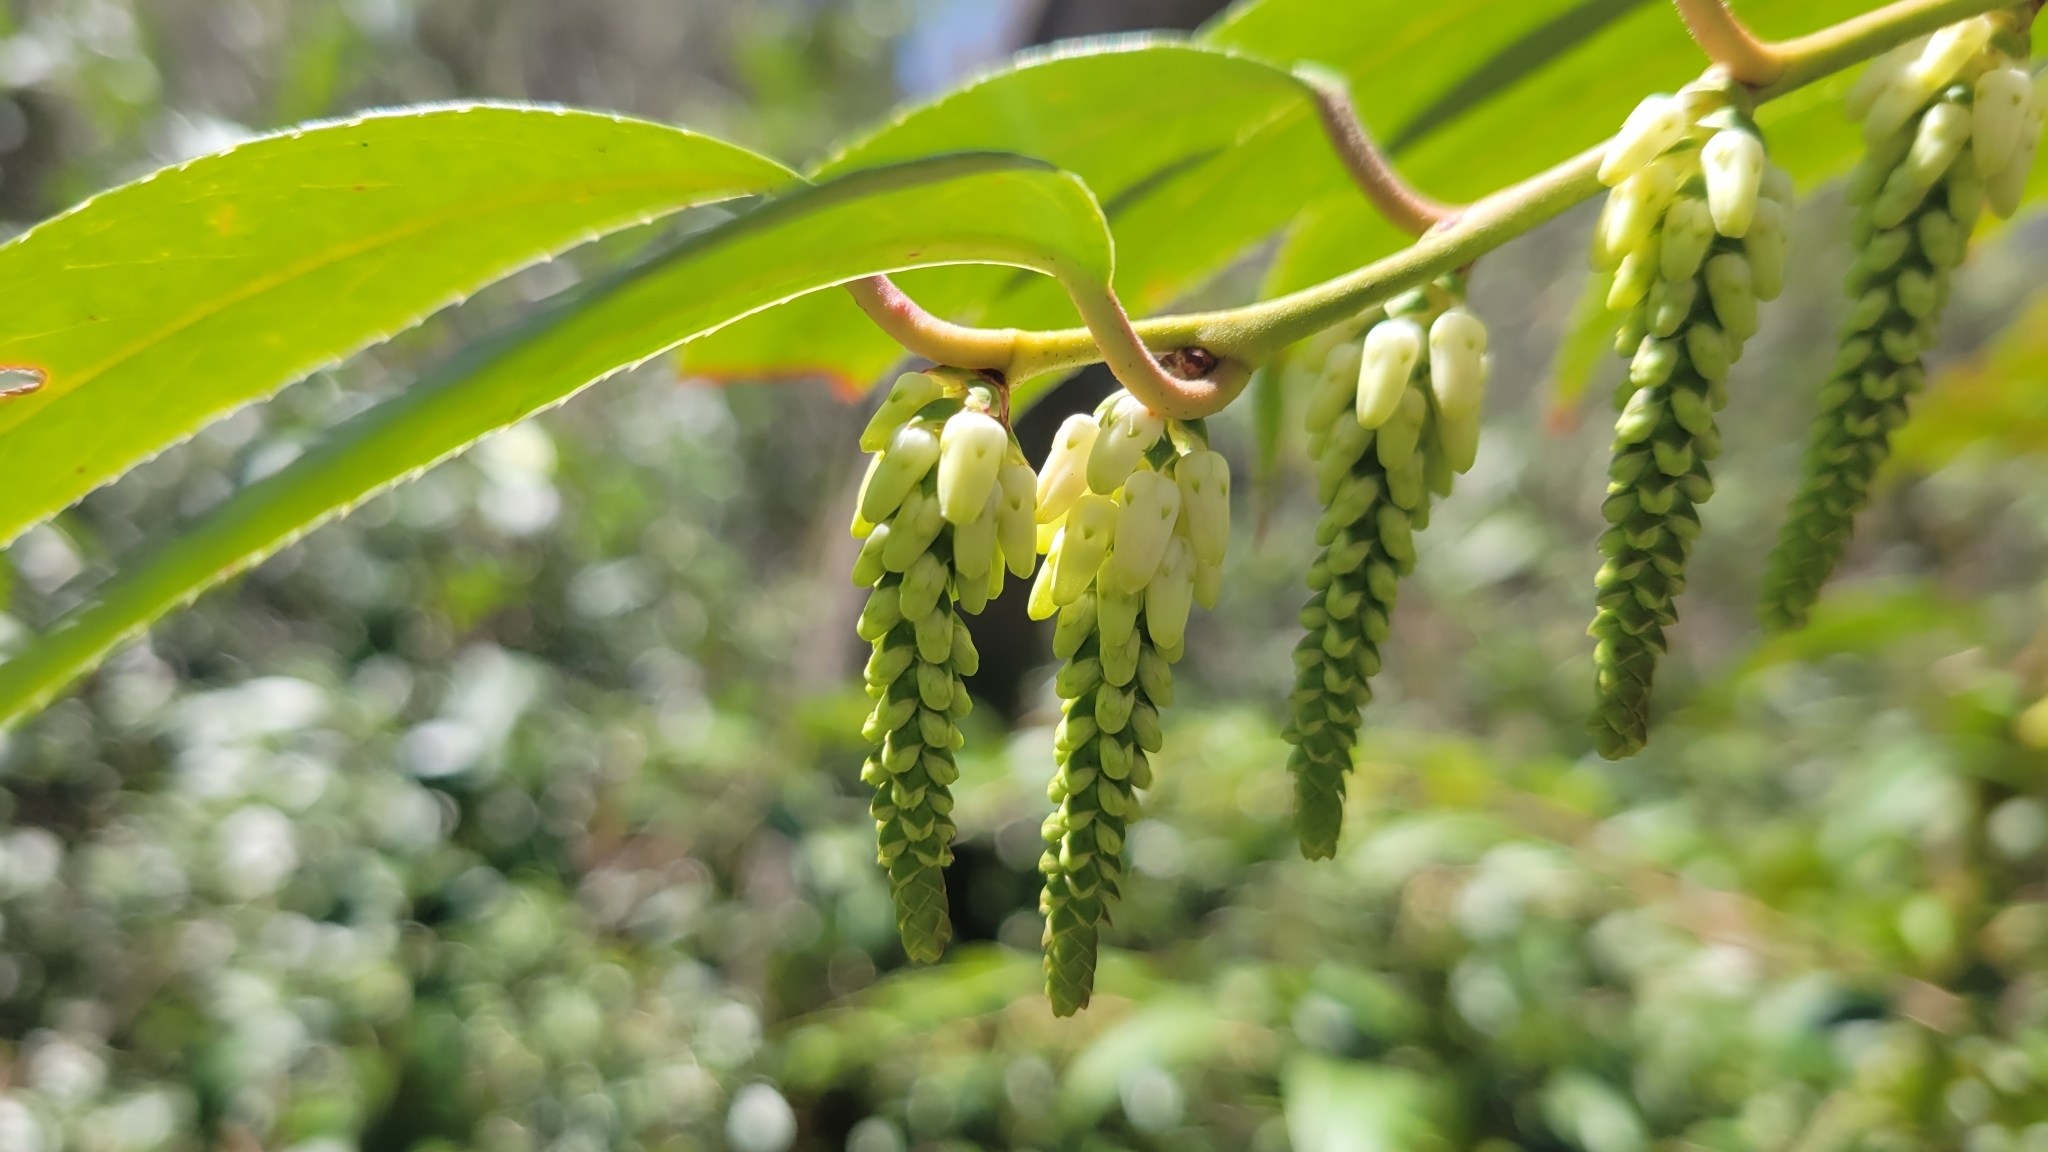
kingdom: Plantae
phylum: Tracheophyta
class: Magnoliopsida
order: Ericales
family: Ericaceae
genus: Leucothoe
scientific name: Leucothoe fontanesiana
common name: Fetterbush
